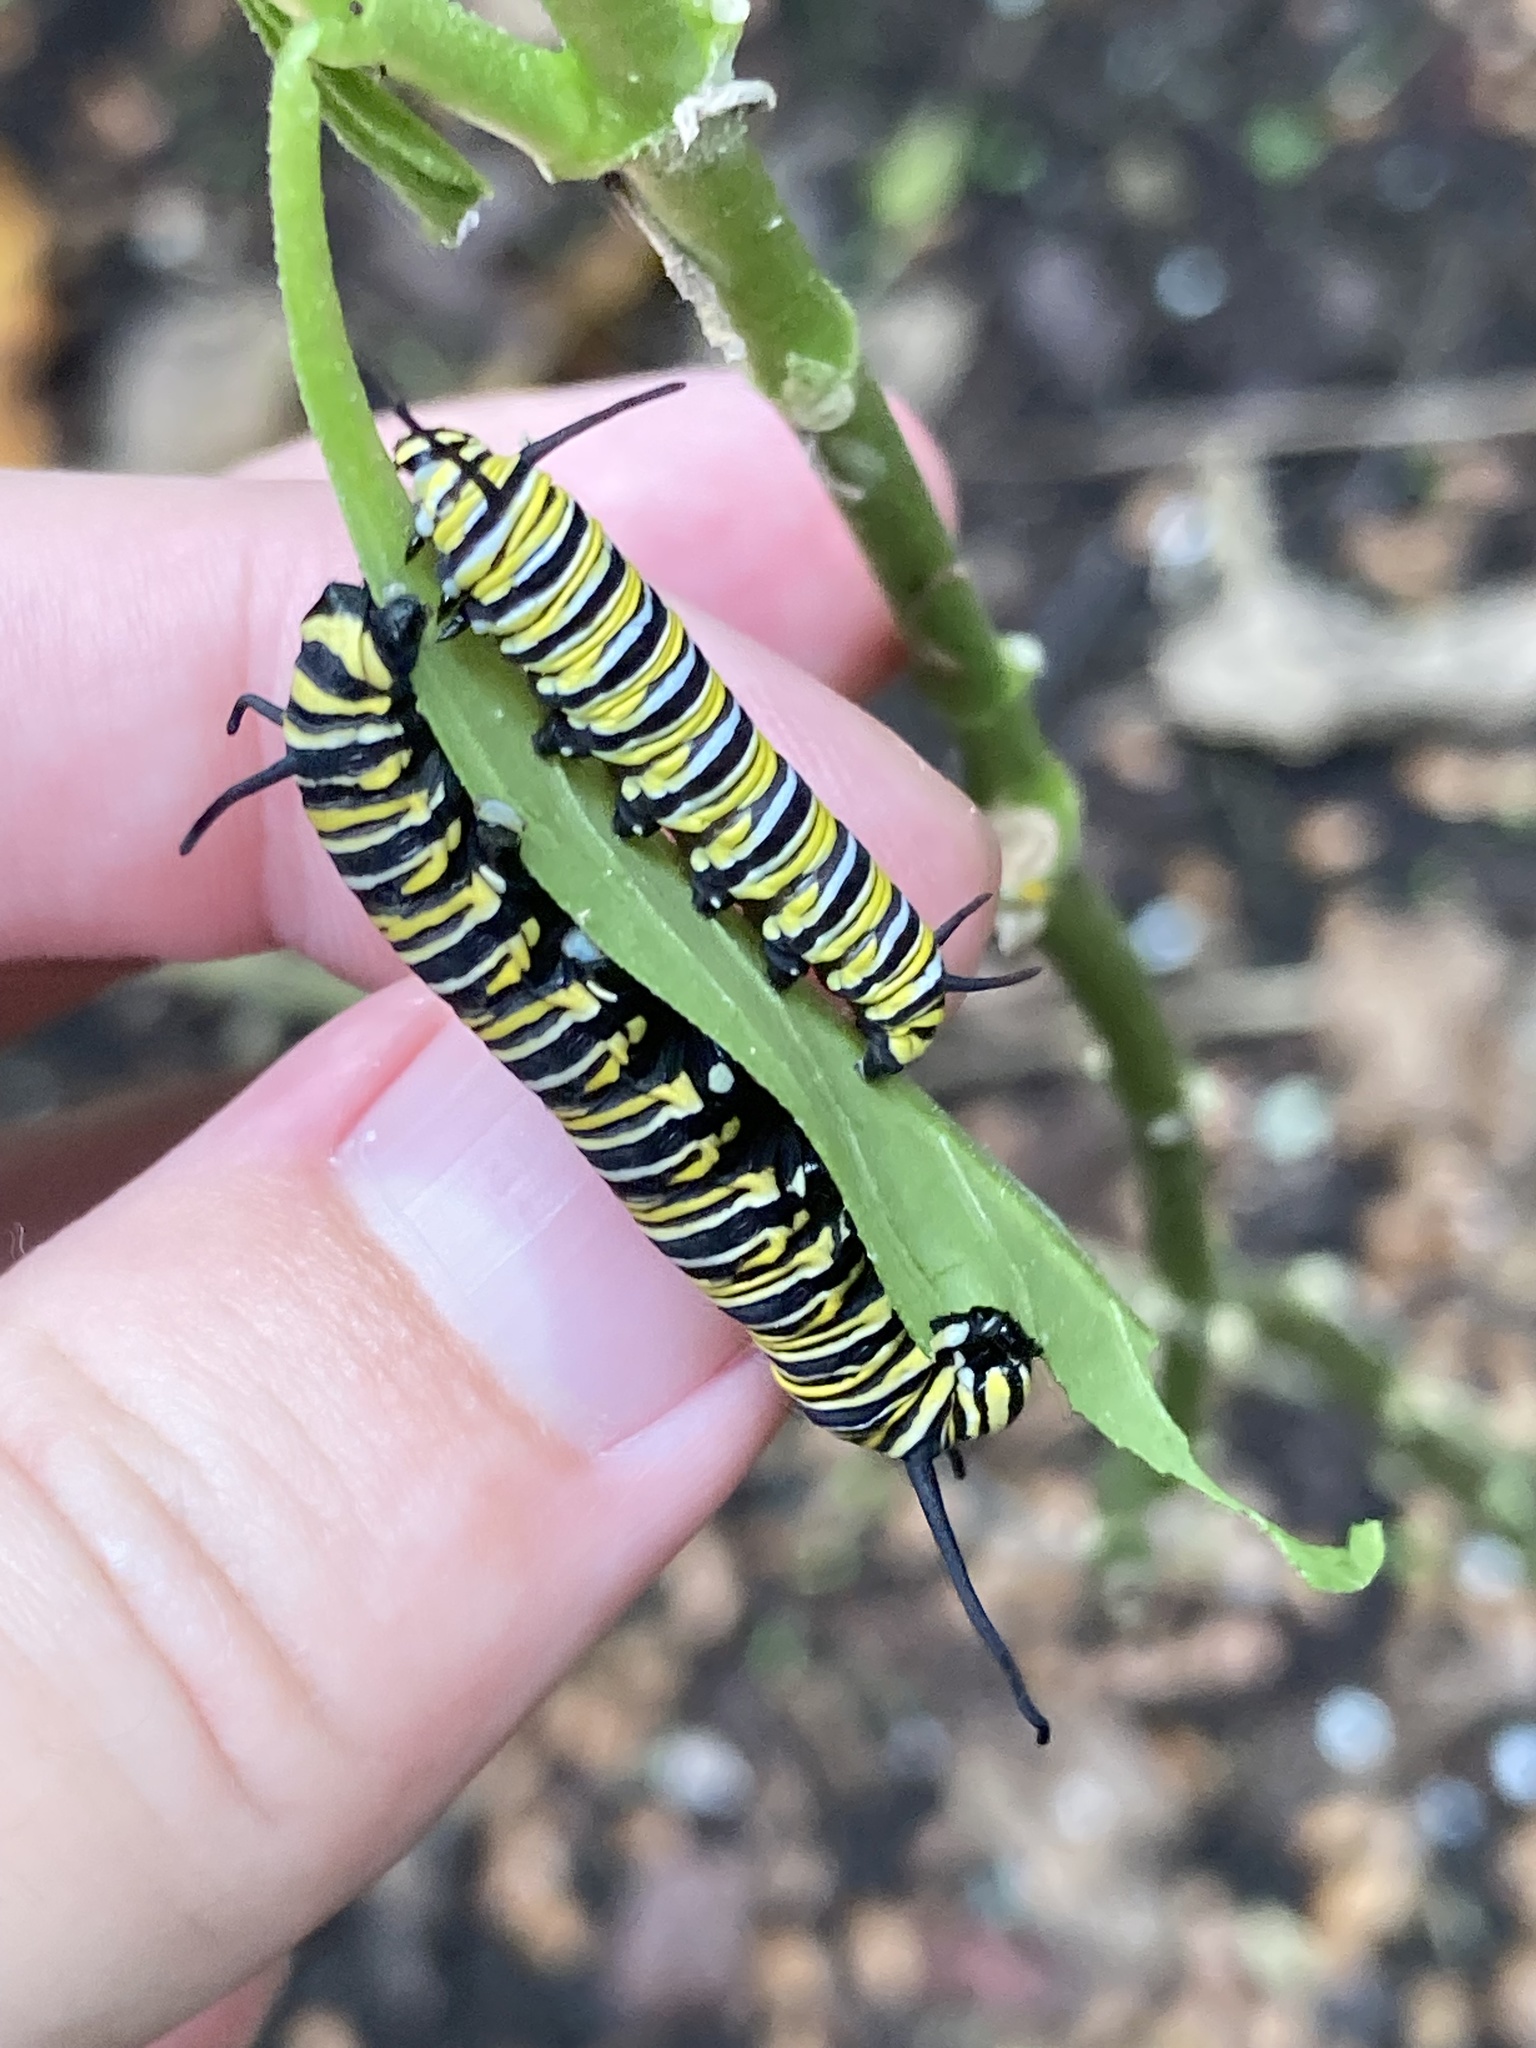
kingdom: Animalia
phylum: Arthropoda
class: Insecta
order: Lepidoptera
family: Nymphalidae
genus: Danaus
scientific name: Danaus plexippus
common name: Monarch
